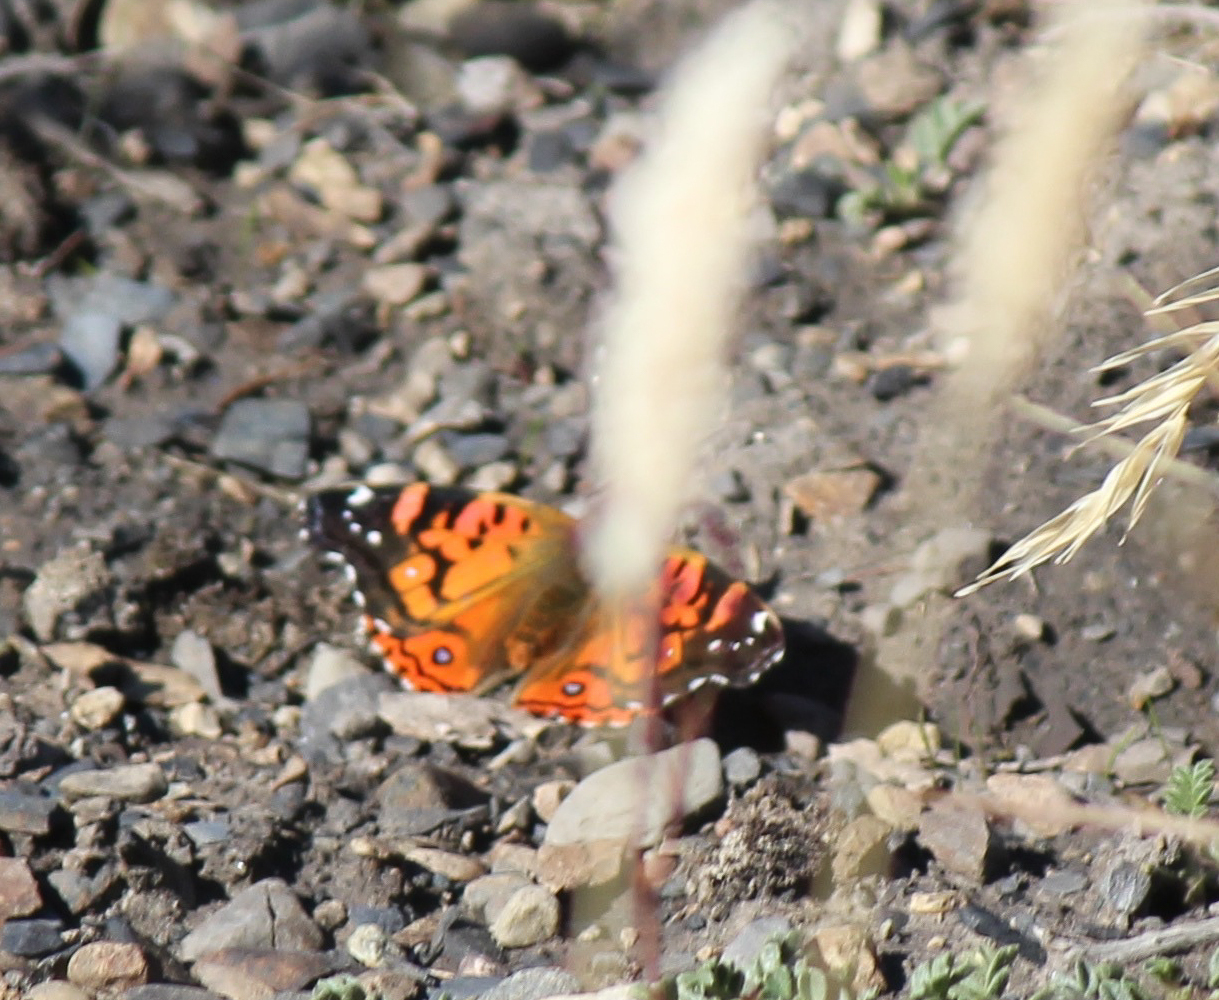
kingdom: Animalia
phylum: Arthropoda
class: Insecta
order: Lepidoptera
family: Nymphalidae
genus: Vanessa
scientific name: Vanessa terpsichore
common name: Chilean lady
